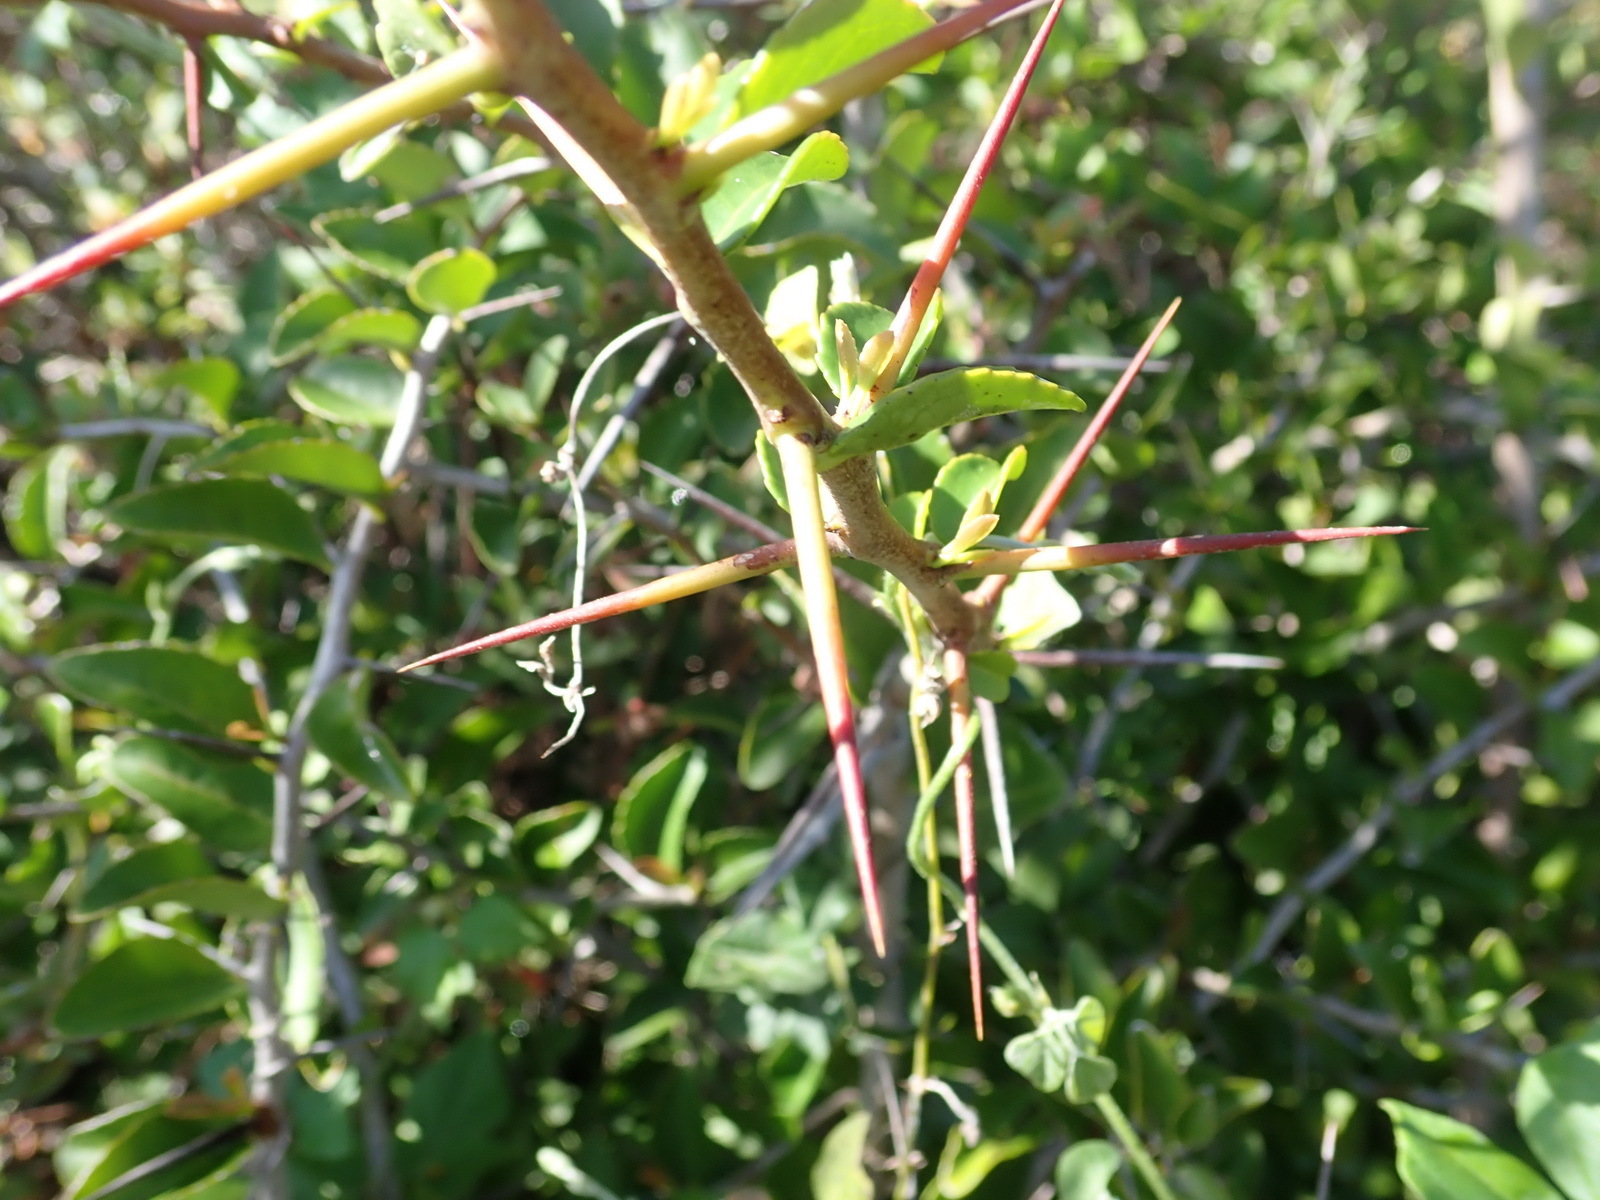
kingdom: Plantae
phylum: Tracheophyta
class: Magnoliopsida
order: Celastrales
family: Celastraceae
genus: Gymnosporia
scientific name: Gymnosporia nemorosa
